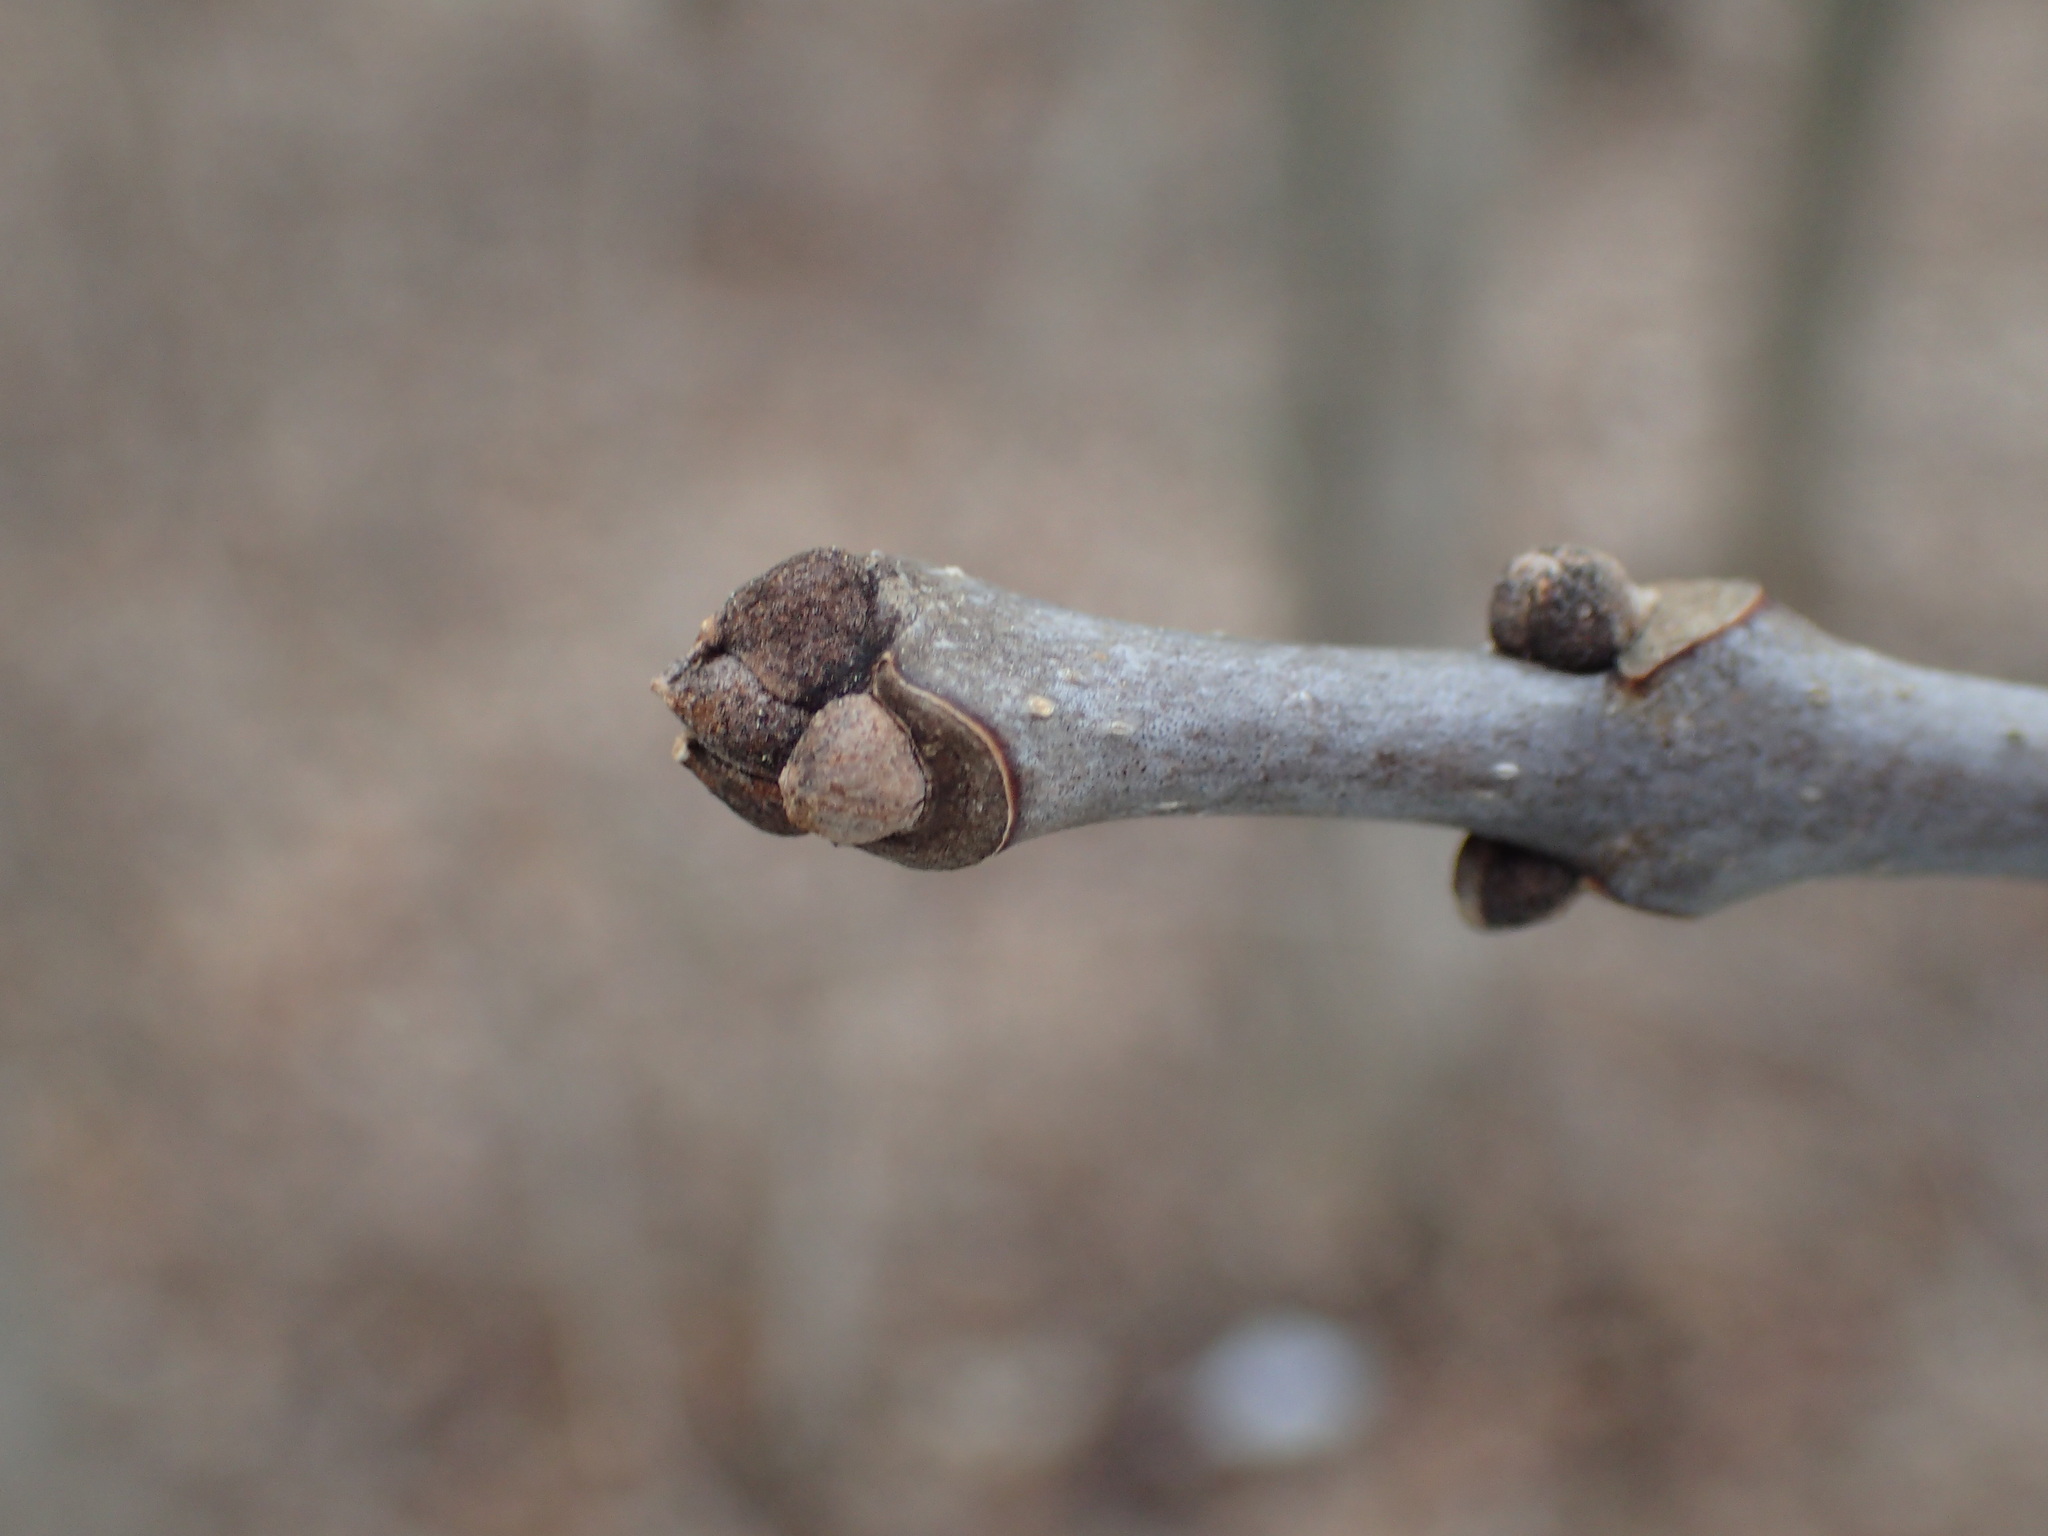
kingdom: Plantae
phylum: Tracheophyta
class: Magnoliopsida
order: Lamiales
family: Oleaceae
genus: Fraxinus
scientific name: Fraxinus americana
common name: White ash
